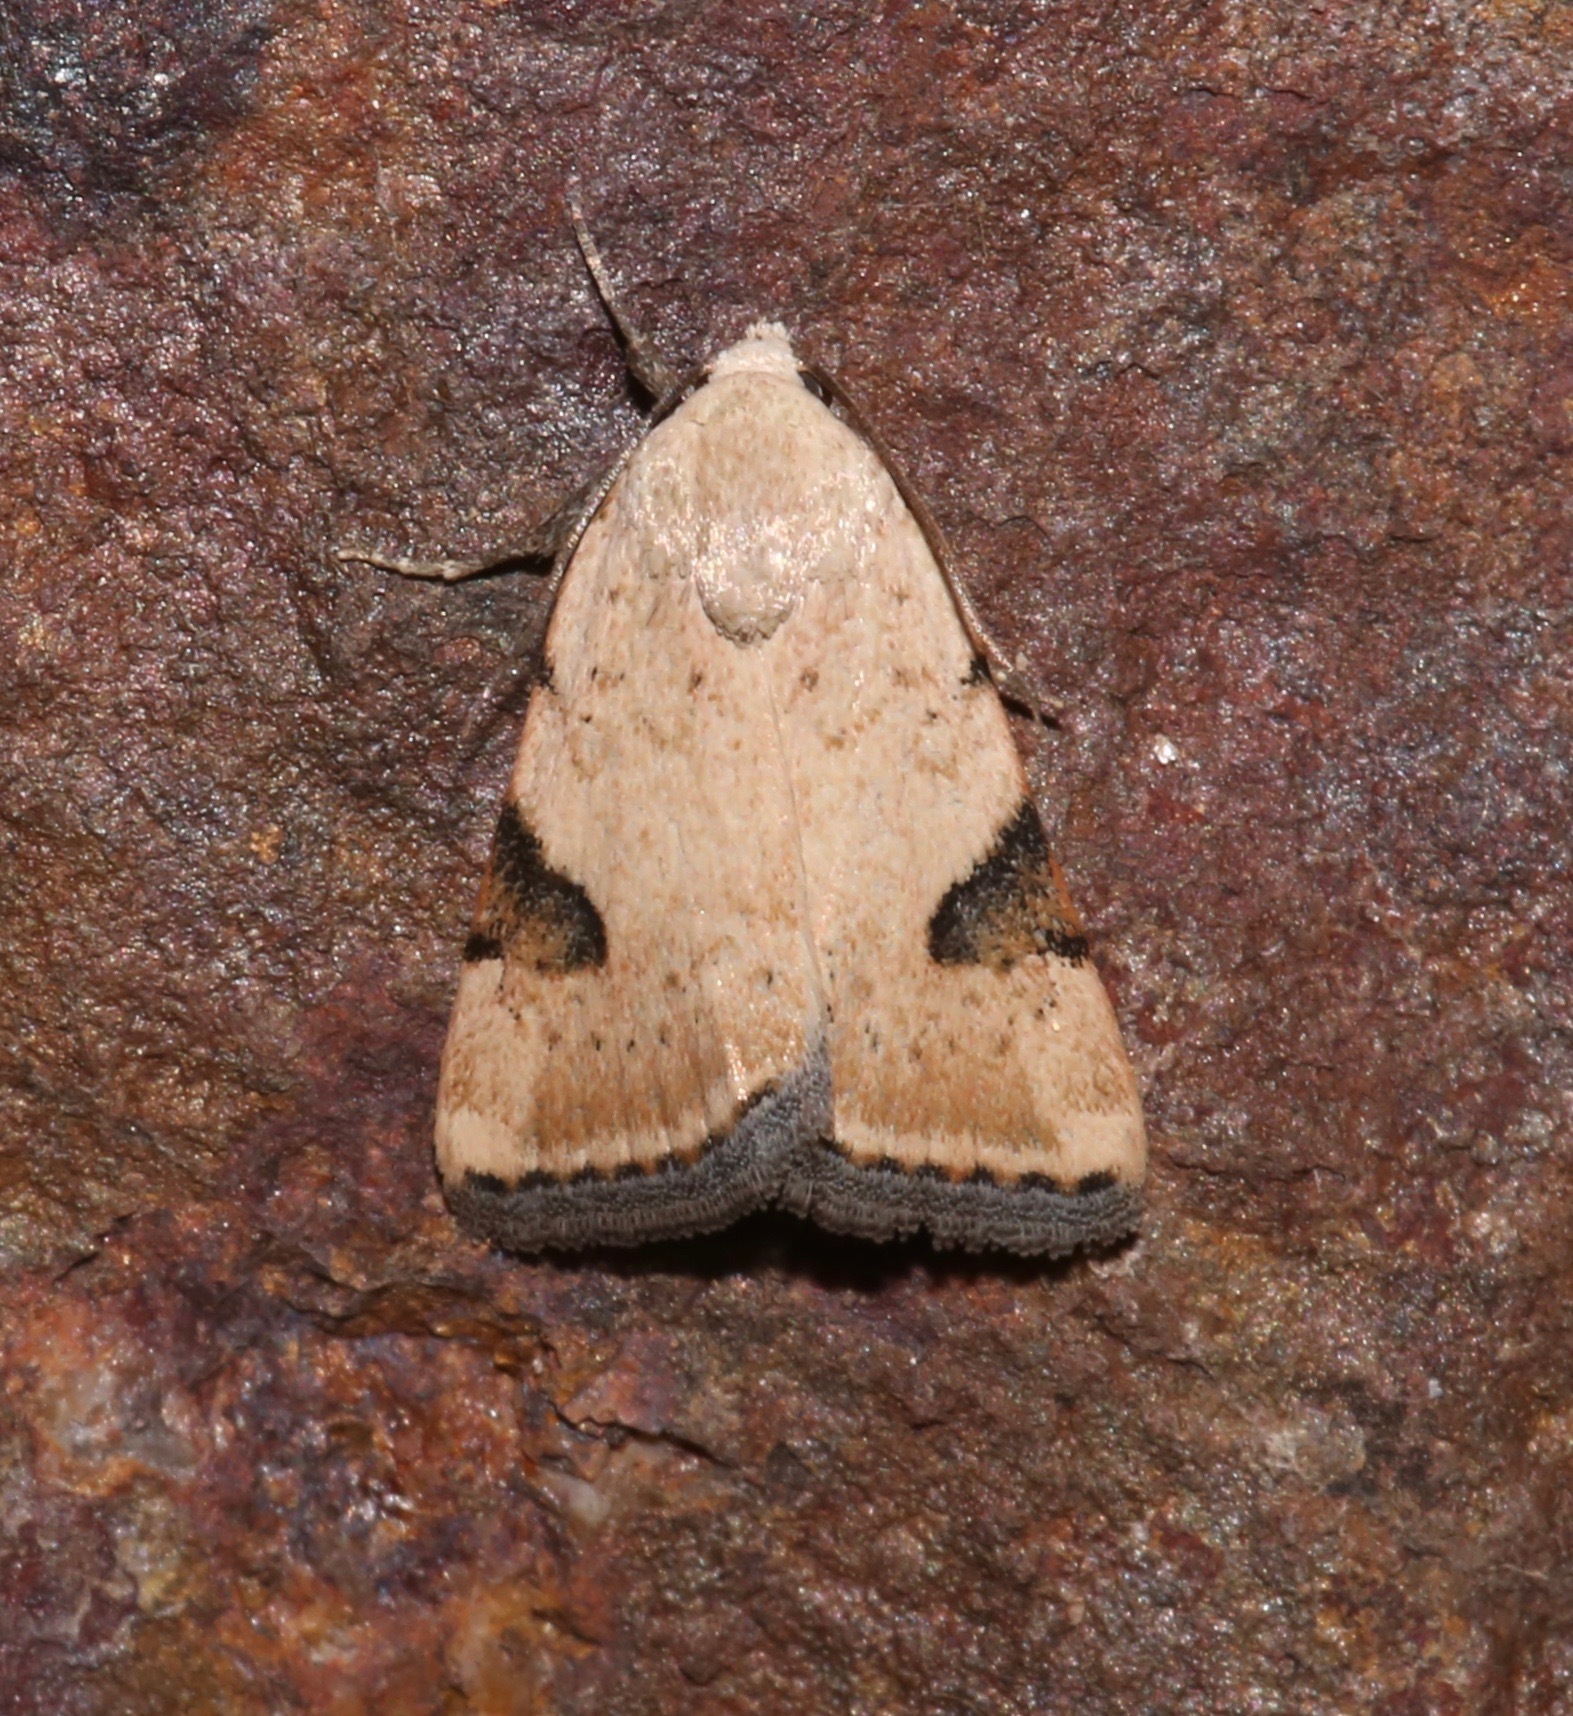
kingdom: Animalia
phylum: Arthropoda
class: Insecta
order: Lepidoptera
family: Noctuidae
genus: Micrathetis
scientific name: Micrathetis costiplaga
